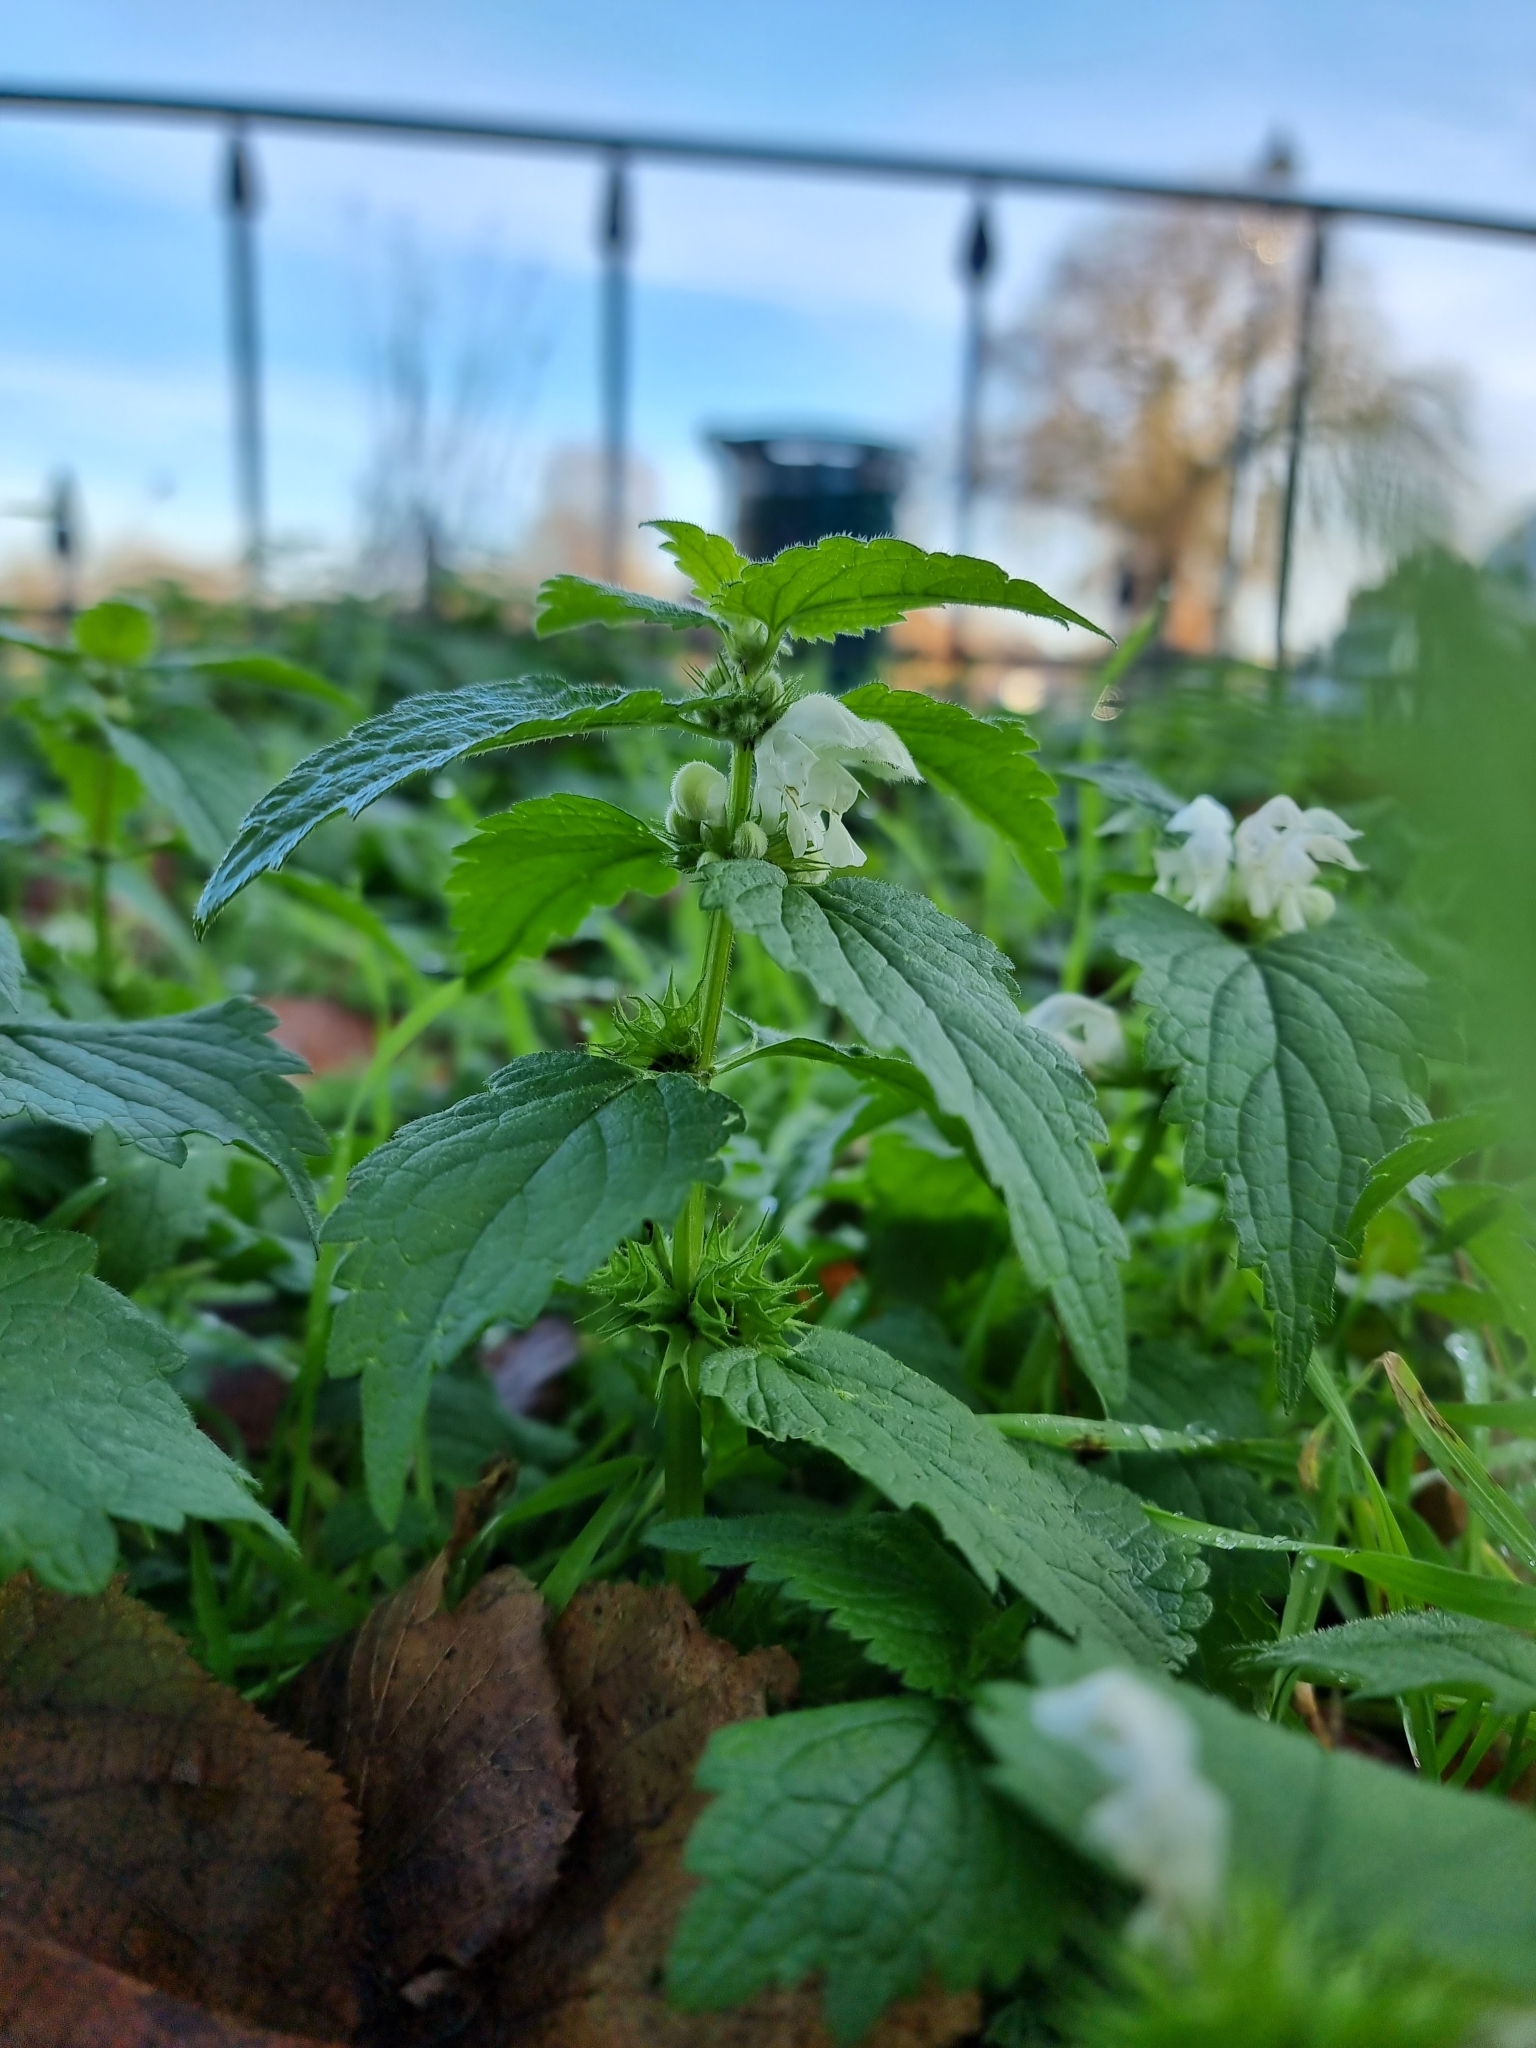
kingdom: Plantae
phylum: Tracheophyta
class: Magnoliopsida
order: Lamiales
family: Lamiaceae
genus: Lamium
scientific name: Lamium album
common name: White dead-nettle
